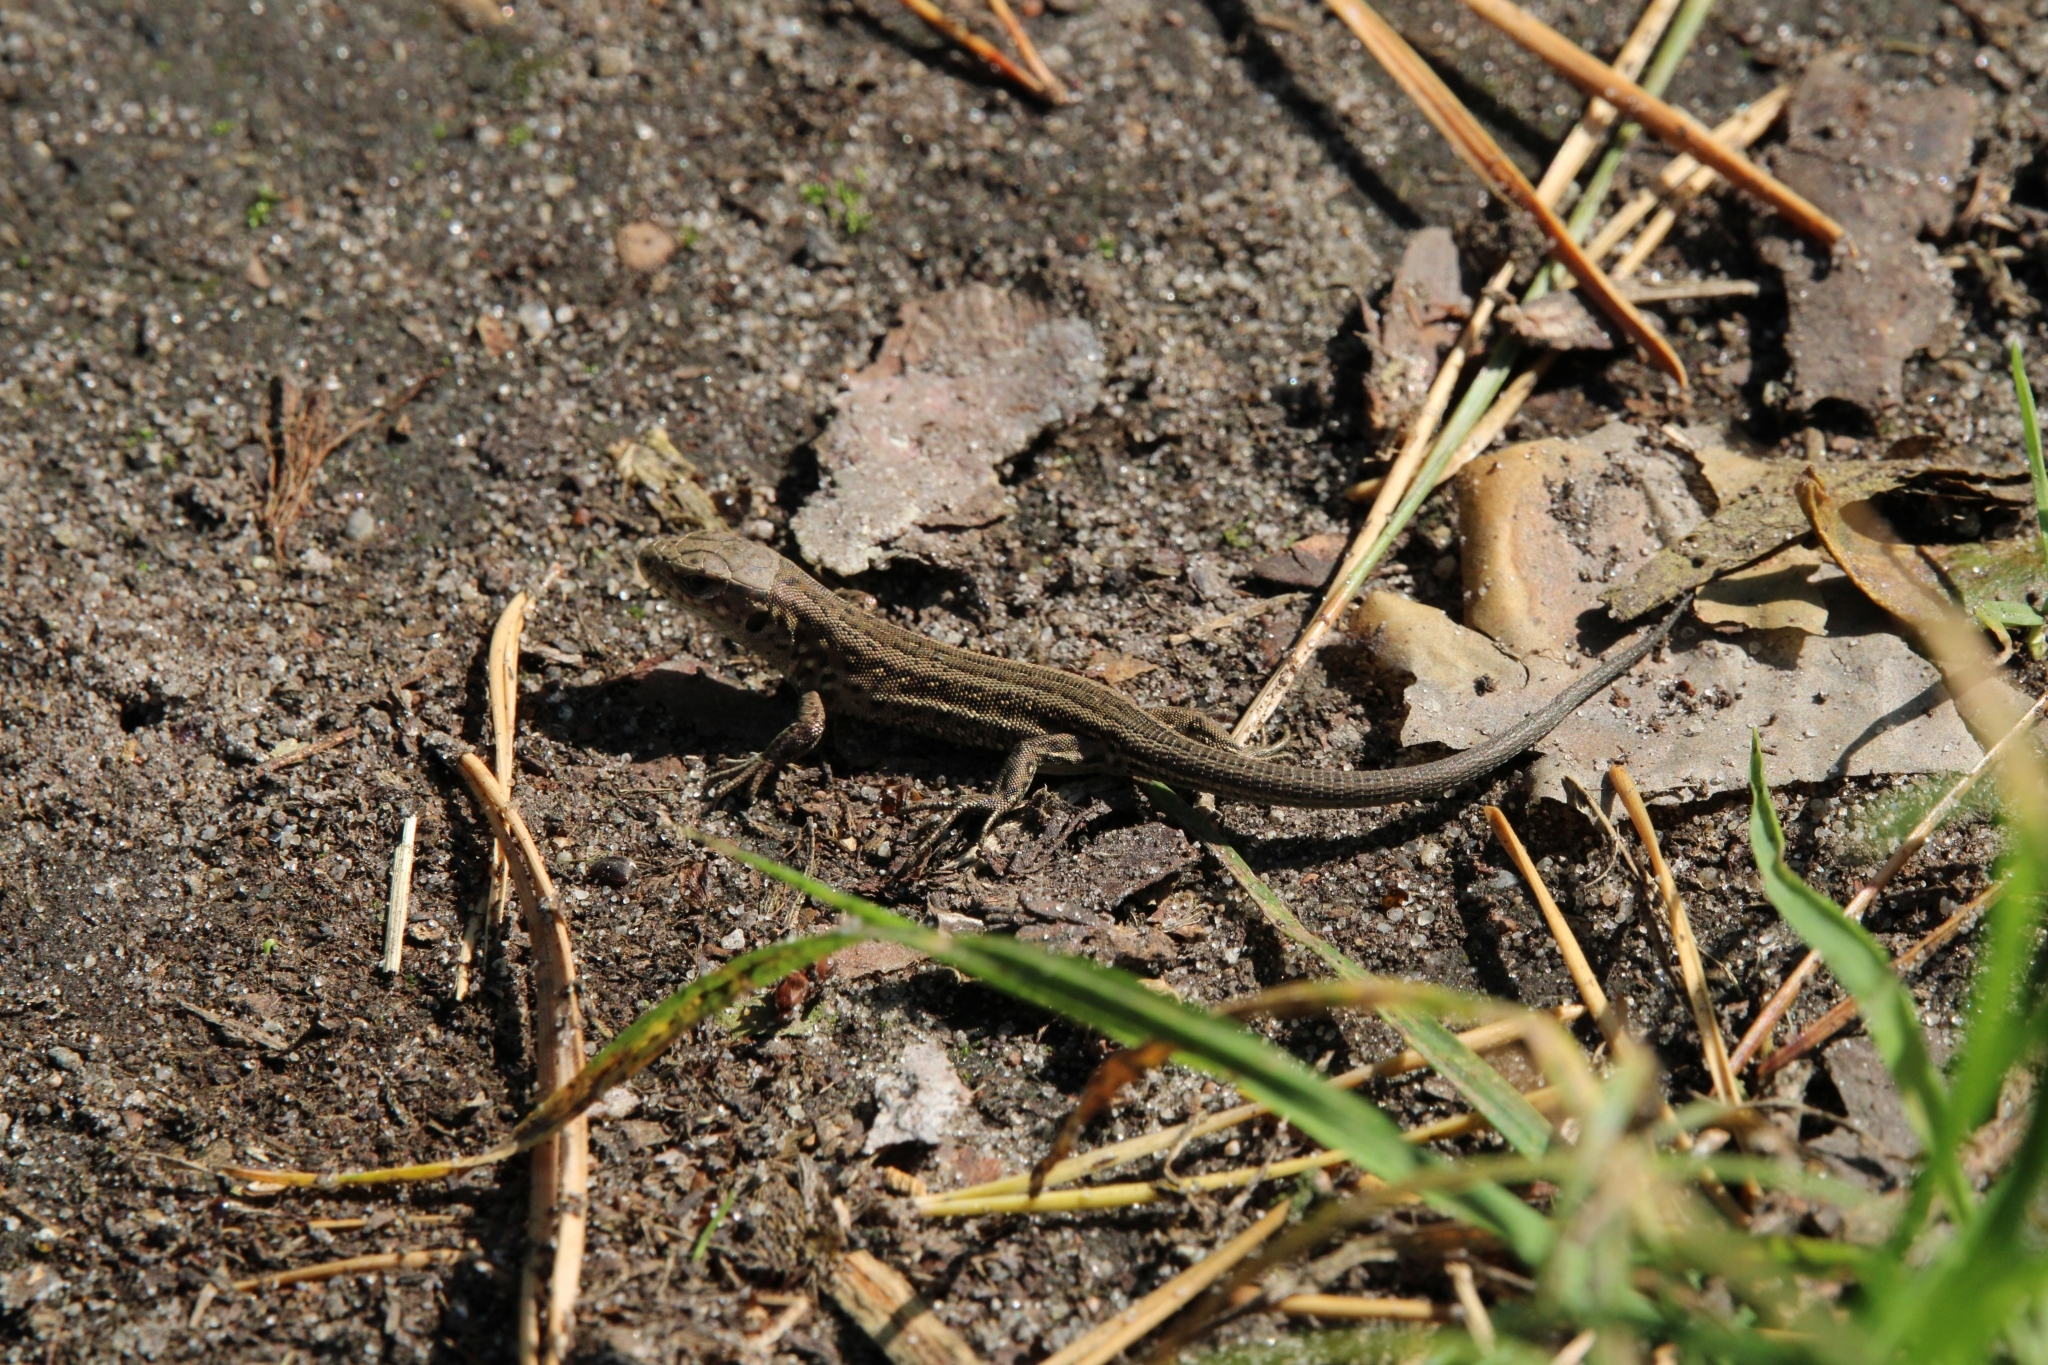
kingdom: Animalia
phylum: Chordata
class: Squamata
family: Lacertidae
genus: Lacerta
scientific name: Lacerta agilis
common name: Sand lizard
